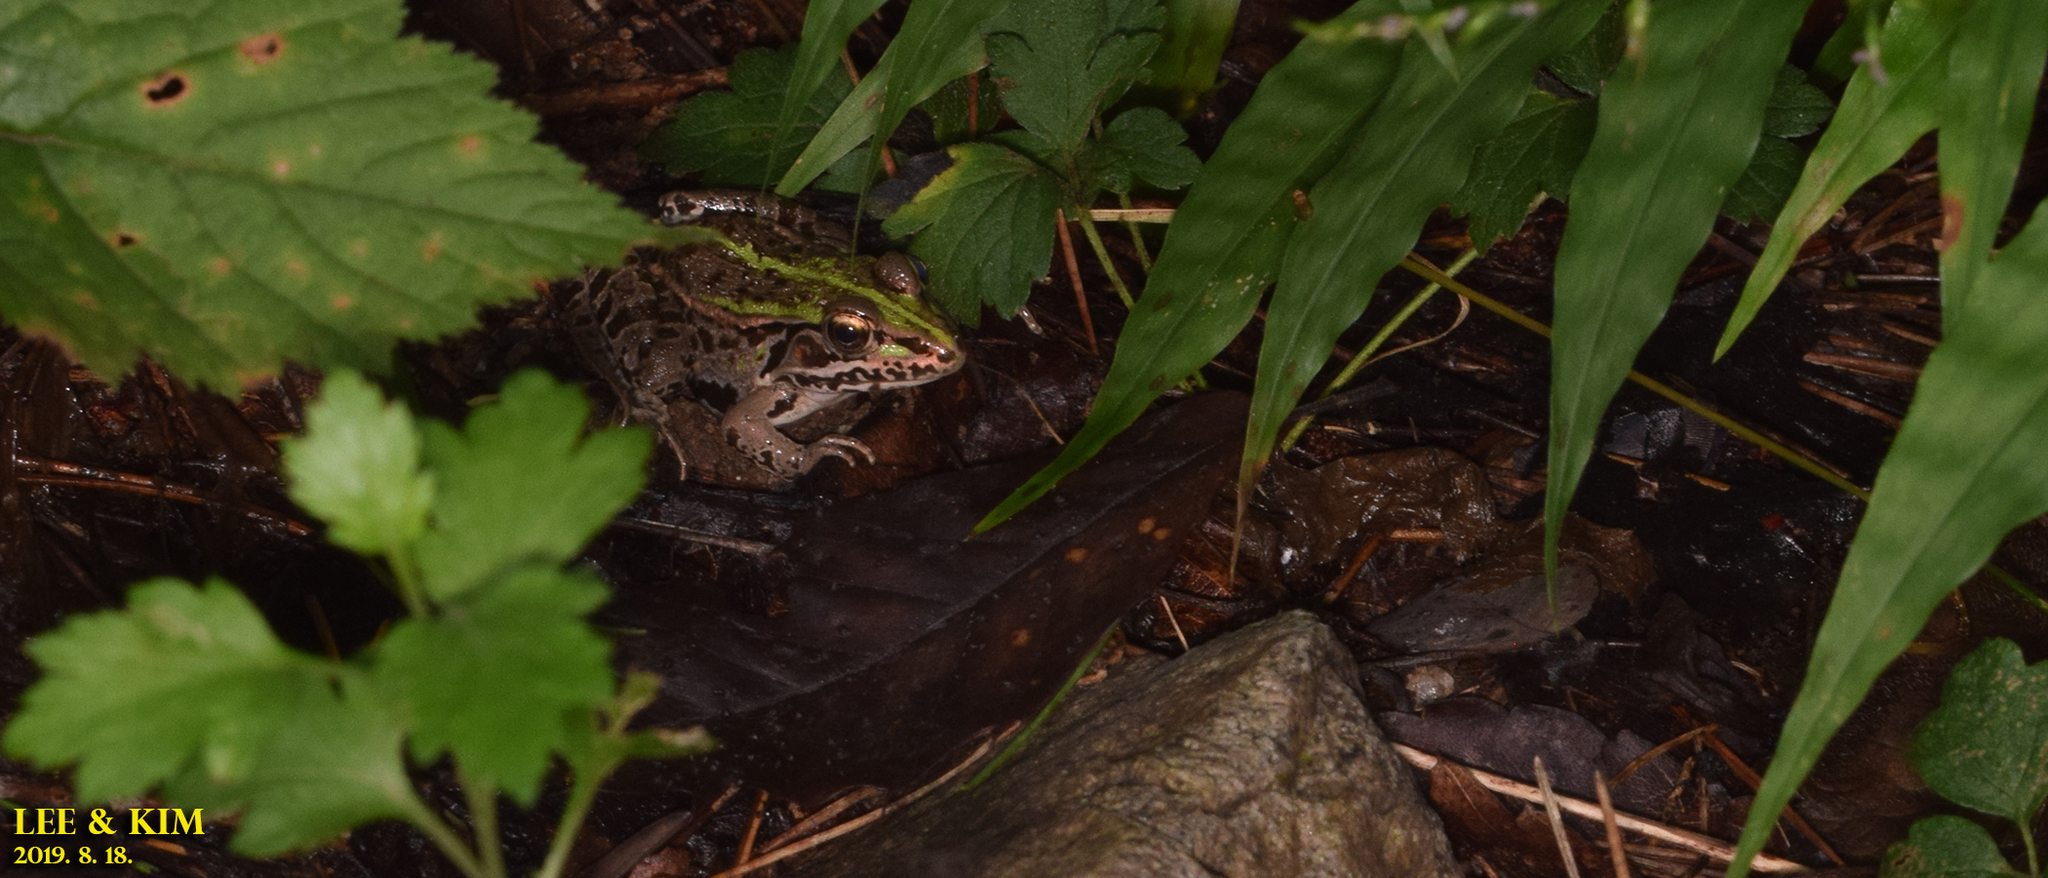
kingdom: Animalia
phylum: Chordata
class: Amphibia
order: Anura
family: Ranidae
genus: Pelophylax
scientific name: Pelophylax nigromaculatus
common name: Black-spotted pond frog
